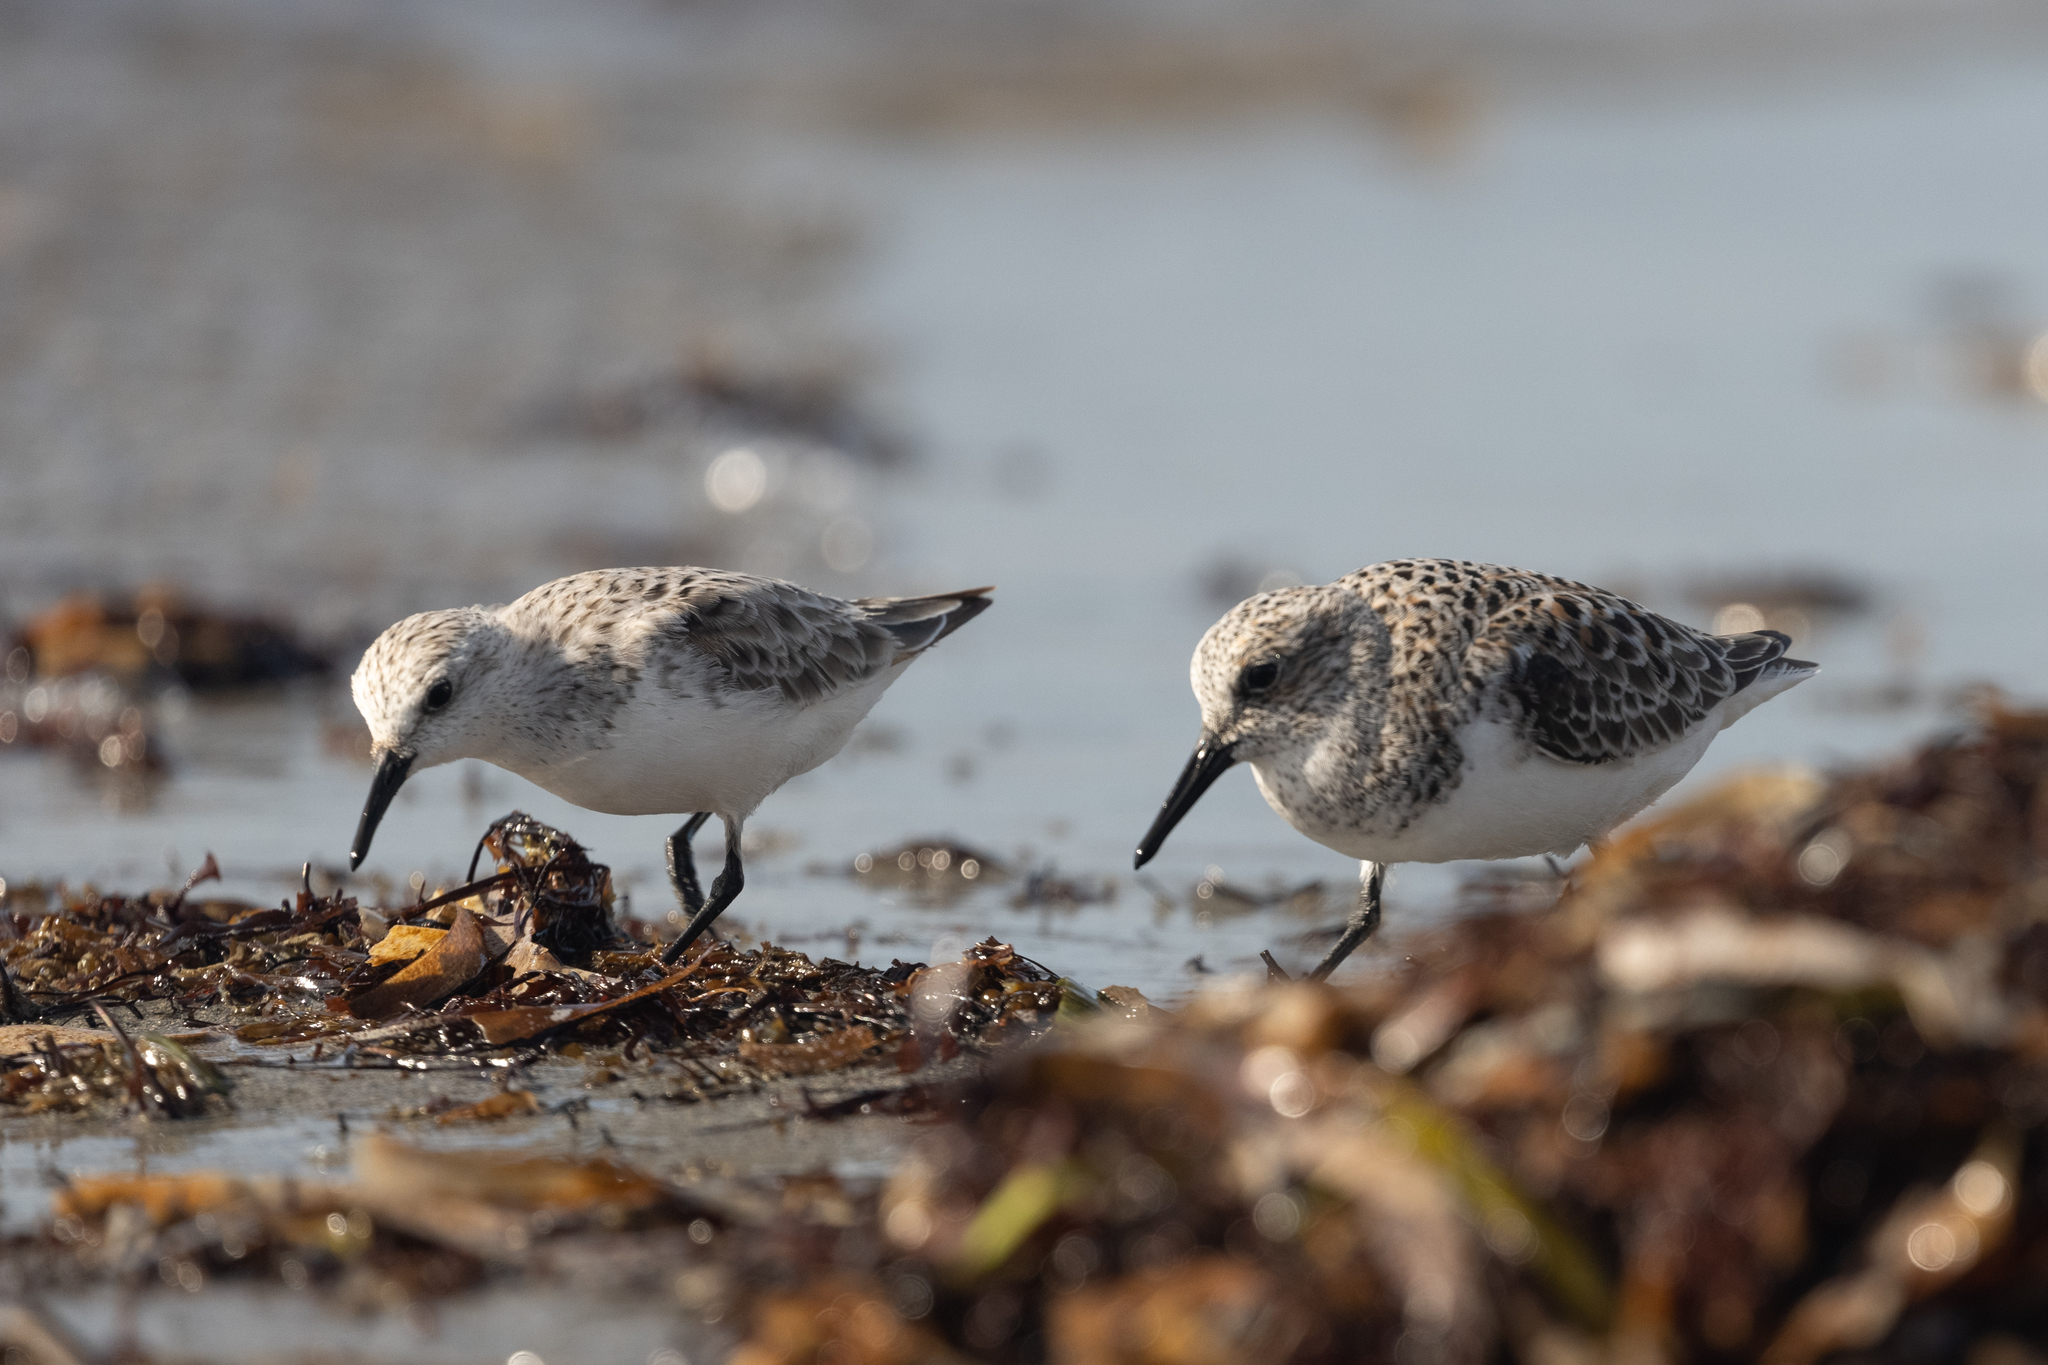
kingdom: Animalia
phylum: Chordata
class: Aves
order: Charadriiformes
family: Scolopacidae
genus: Calidris
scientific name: Calidris alba
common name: Sanderling
